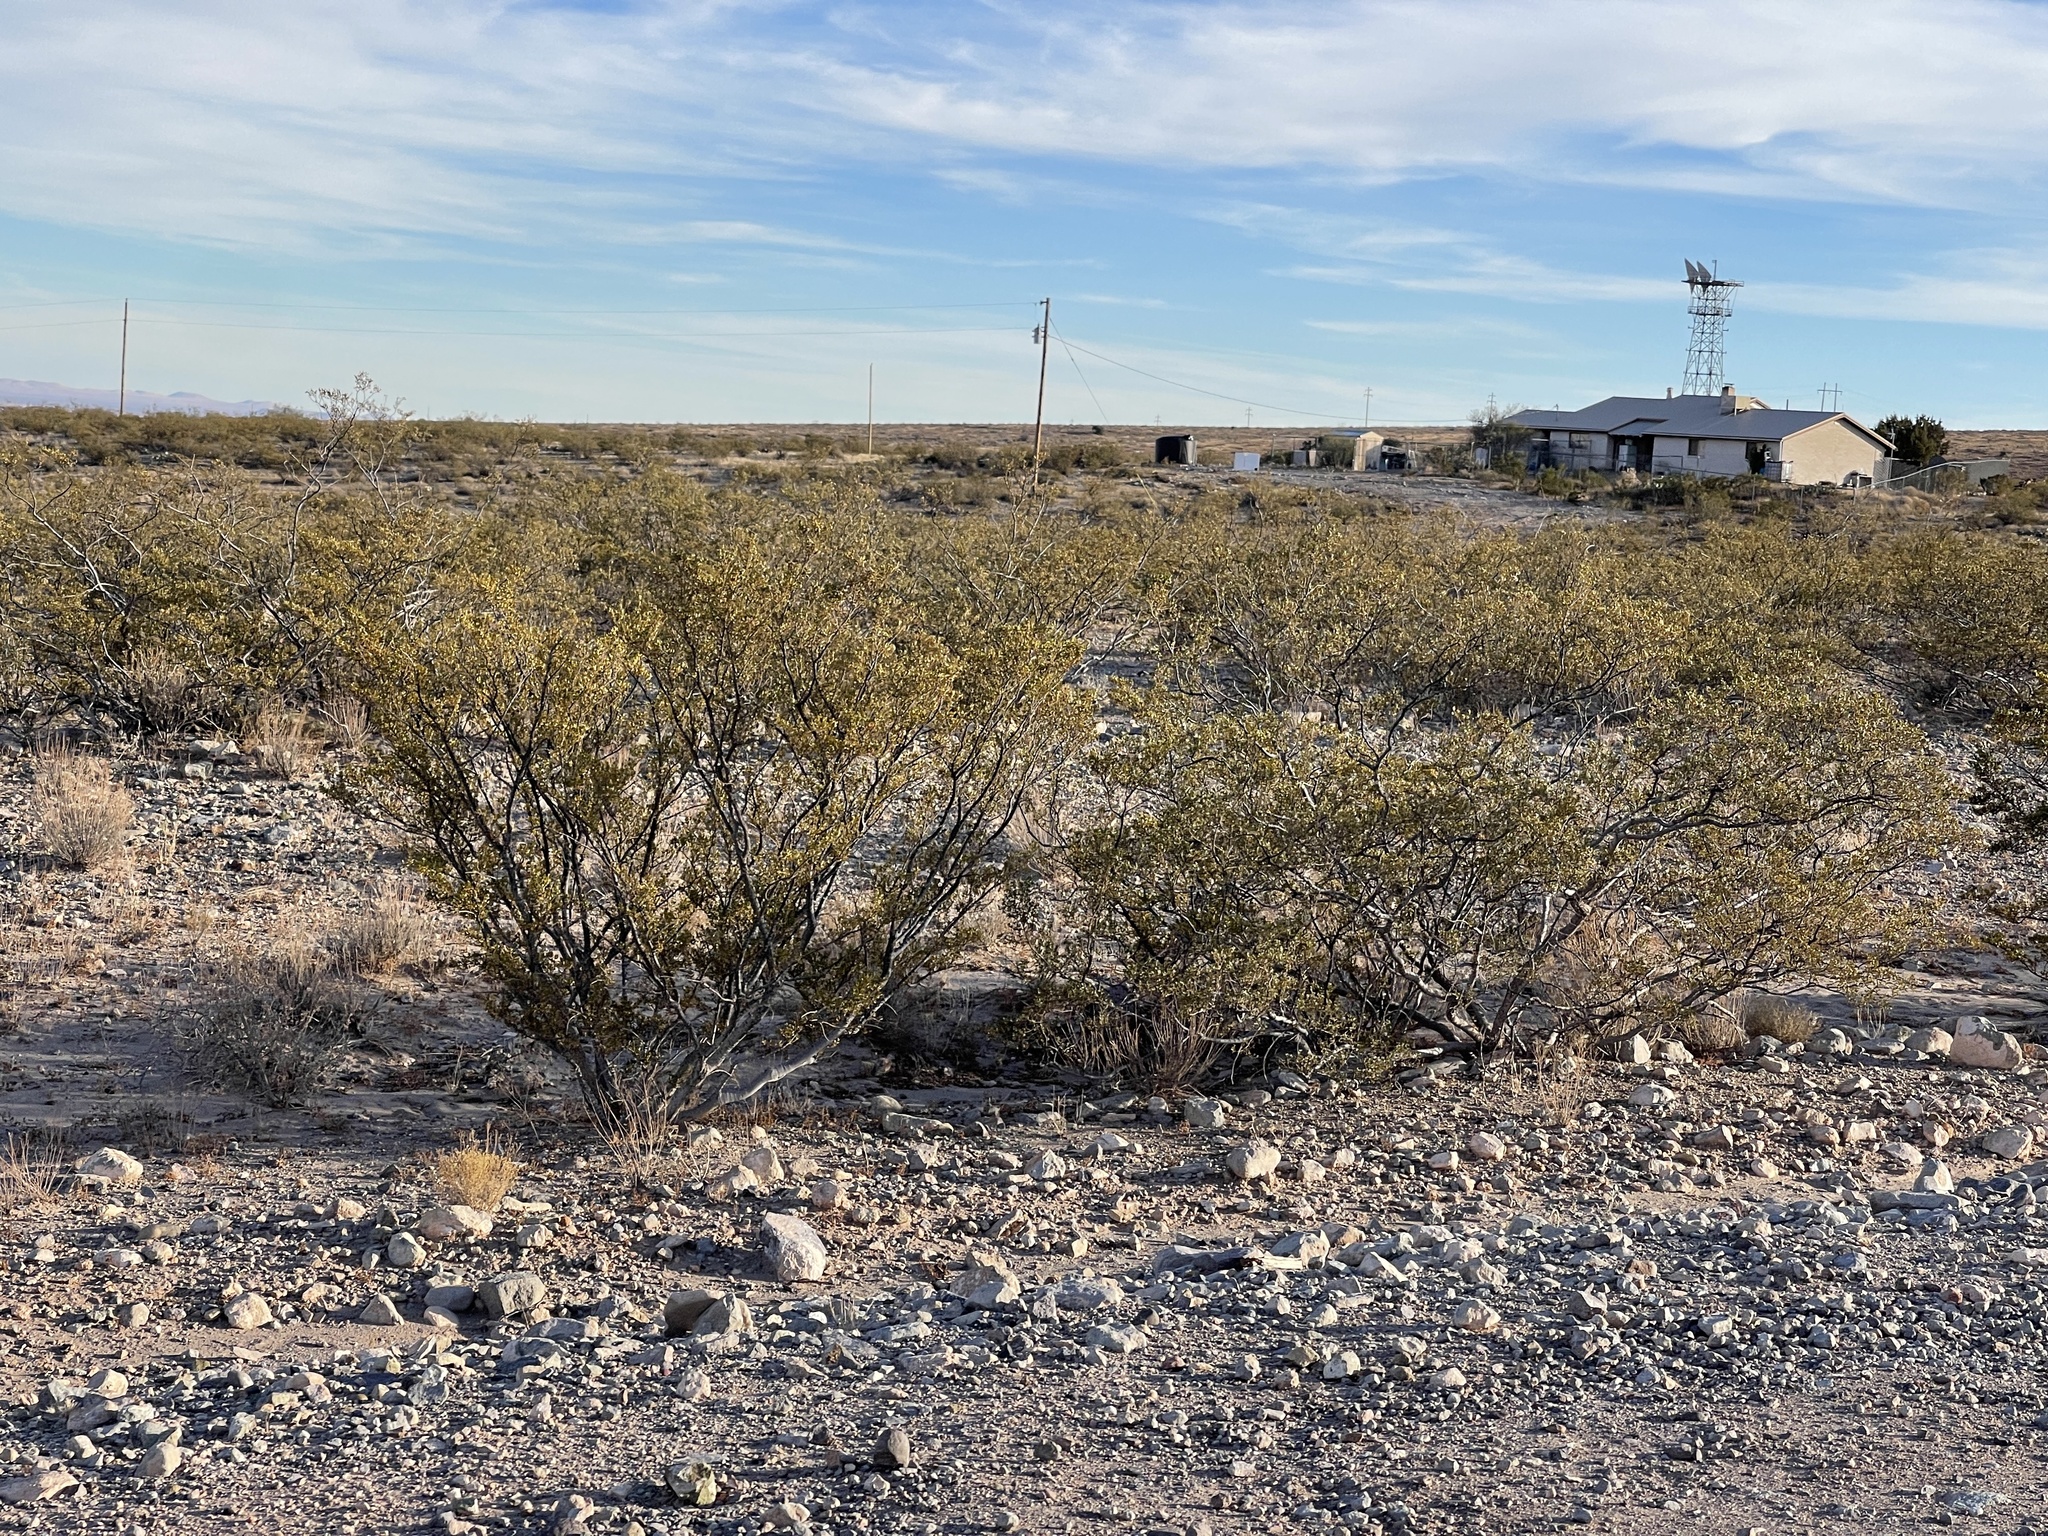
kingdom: Plantae
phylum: Tracheophyta
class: Magnoliopsida
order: Zygophyllales
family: Zygophyllaceae
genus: Larrea
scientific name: Larrea tridentata
